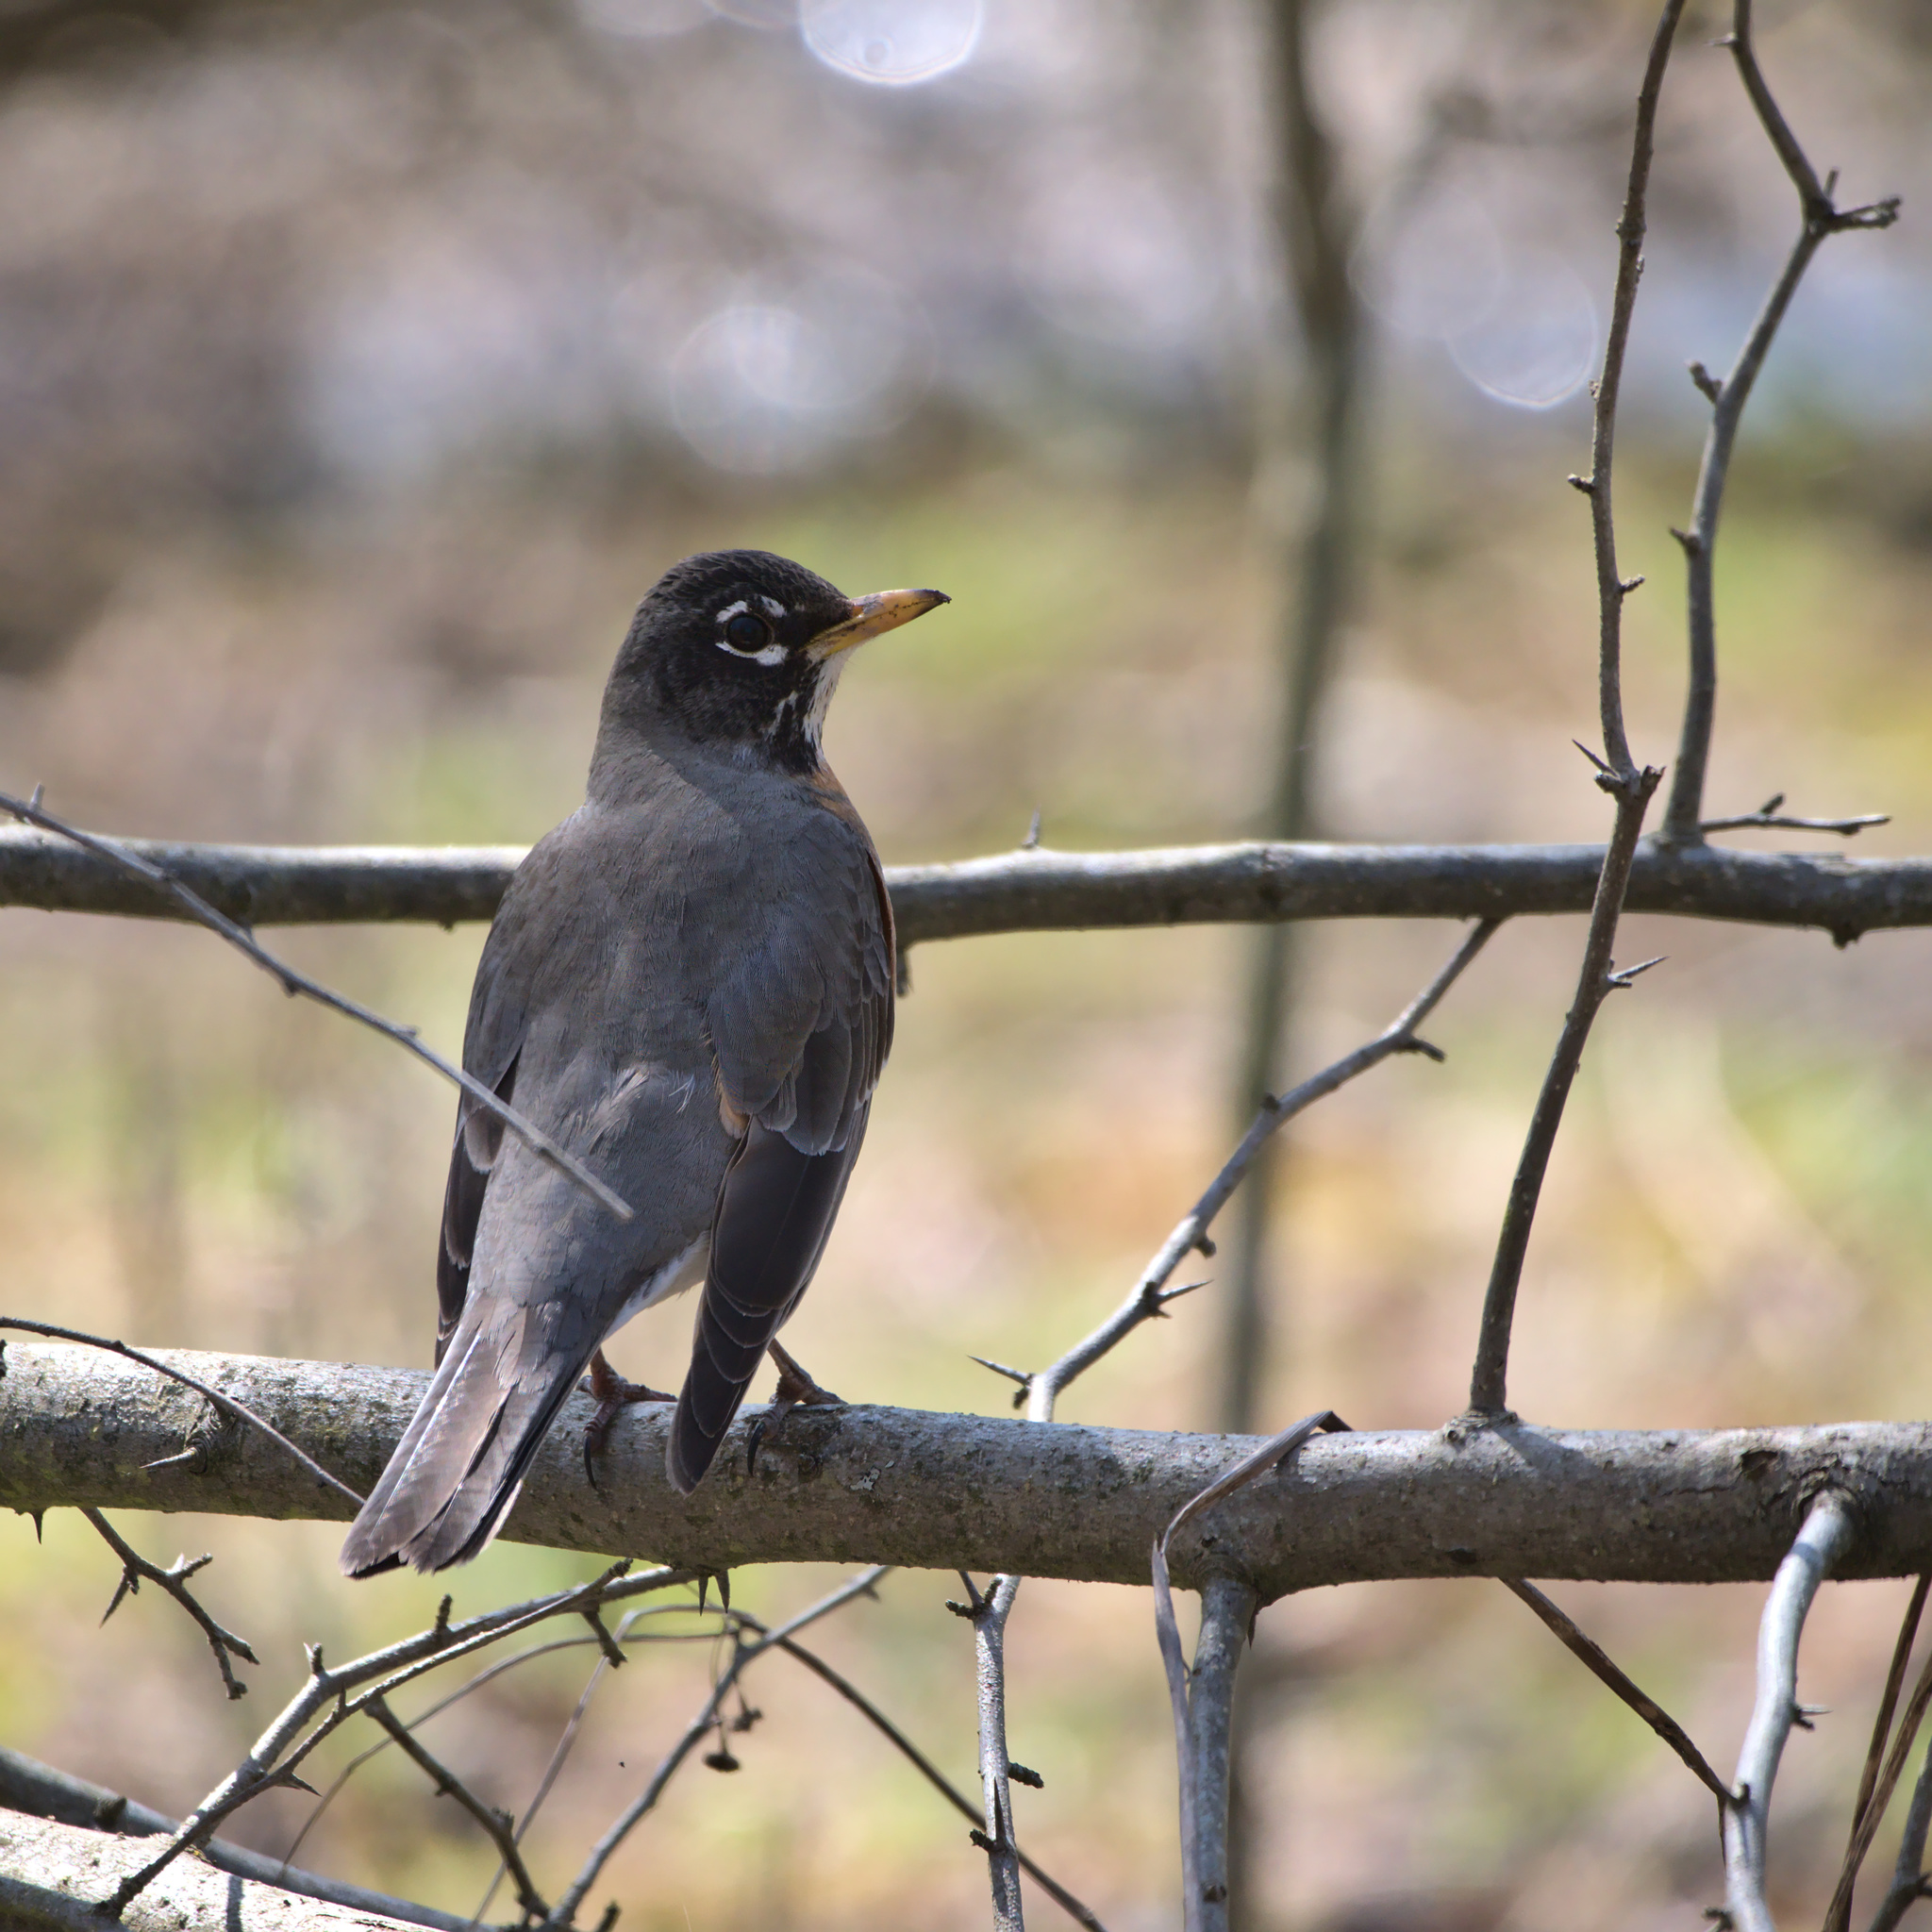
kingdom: Animalia
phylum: Chordata
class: Aves
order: Passeriformes
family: Turdidae
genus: Turdus
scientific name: Turdus migratorius
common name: American robin
